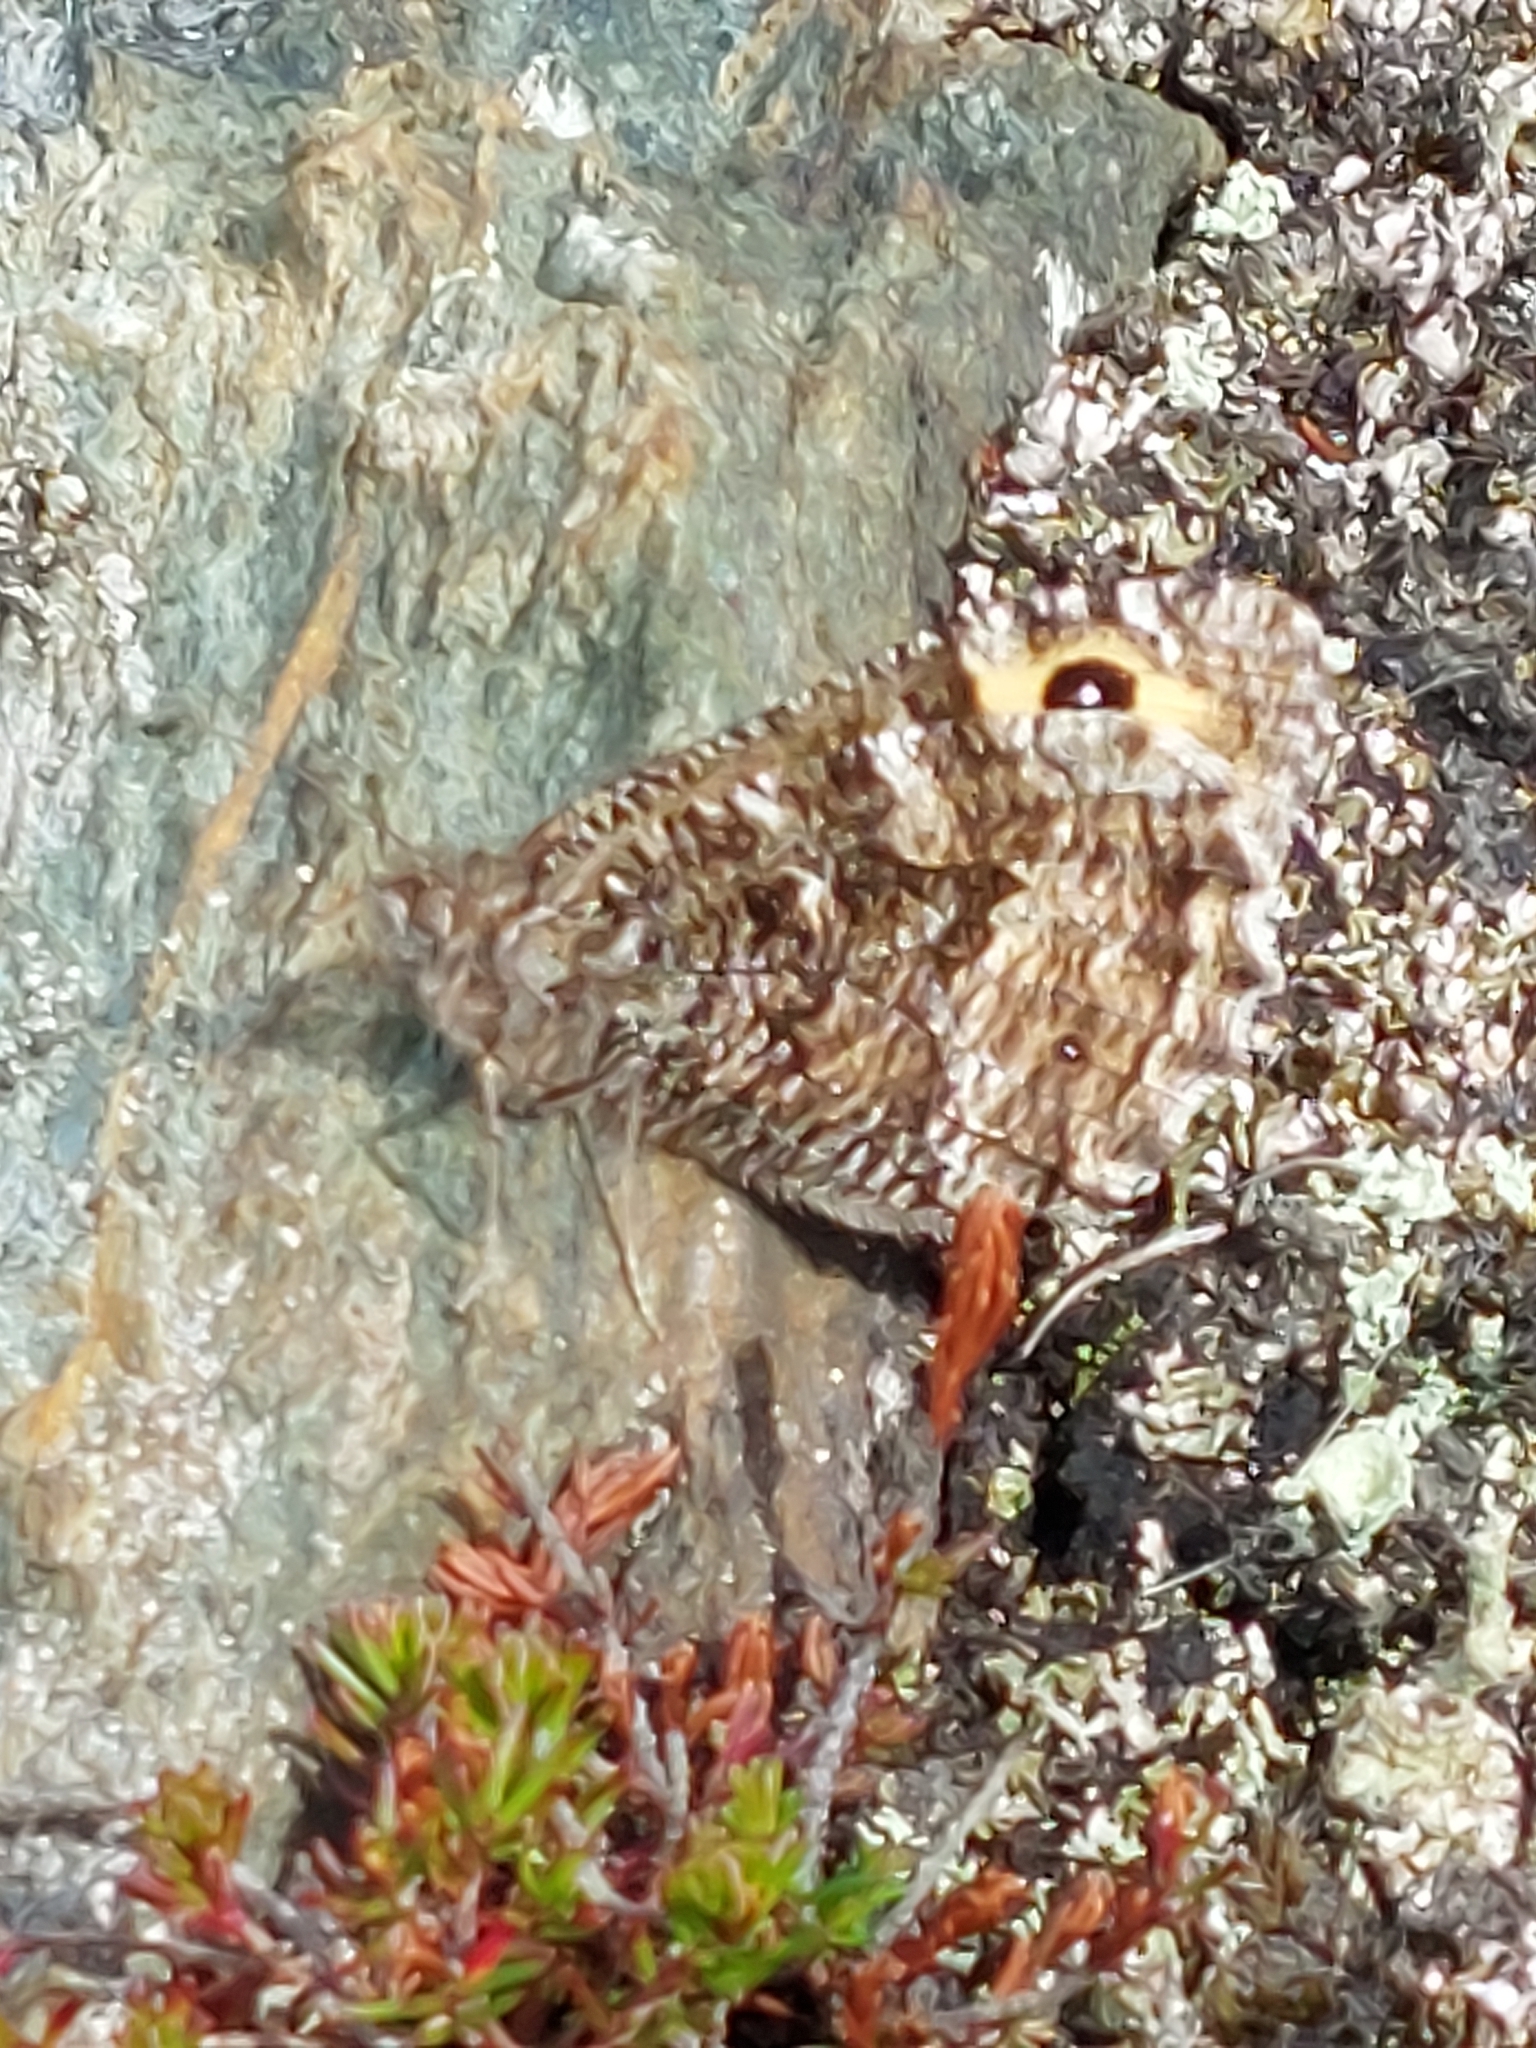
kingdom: Animalia
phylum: Arthropoda
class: Insecta
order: Lepidoptera
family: Nymphalidae
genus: Hipparchia
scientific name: Hipparchia semele
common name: Grayling
